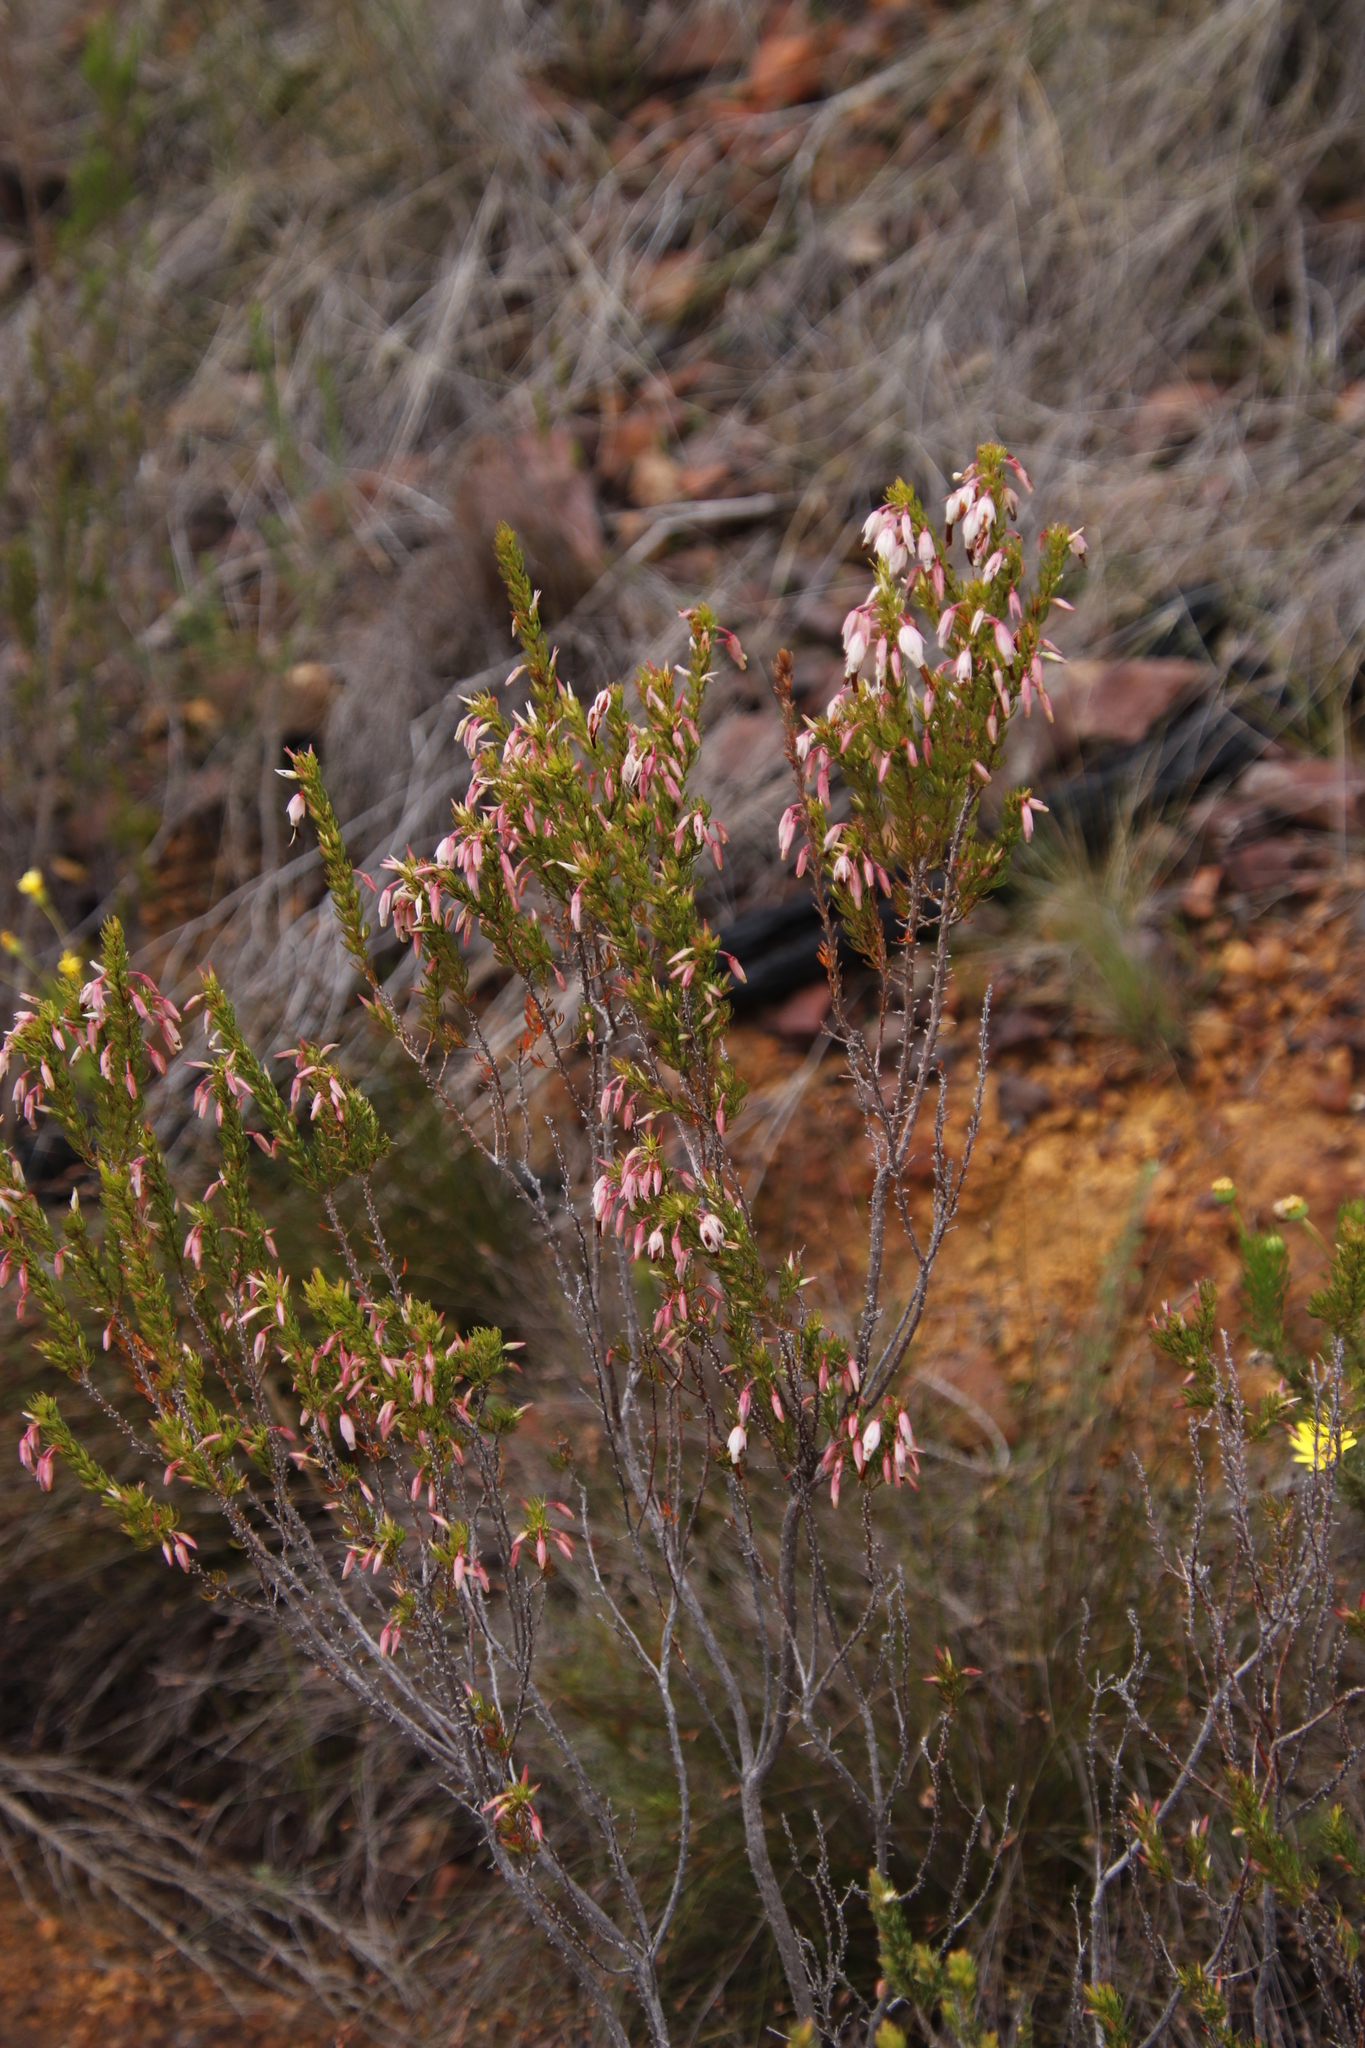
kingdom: Plantae
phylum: Tracheophyta
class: Magnoliopsida
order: Ericales
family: Ericaceae
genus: Erica
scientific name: Erica plukenetii
